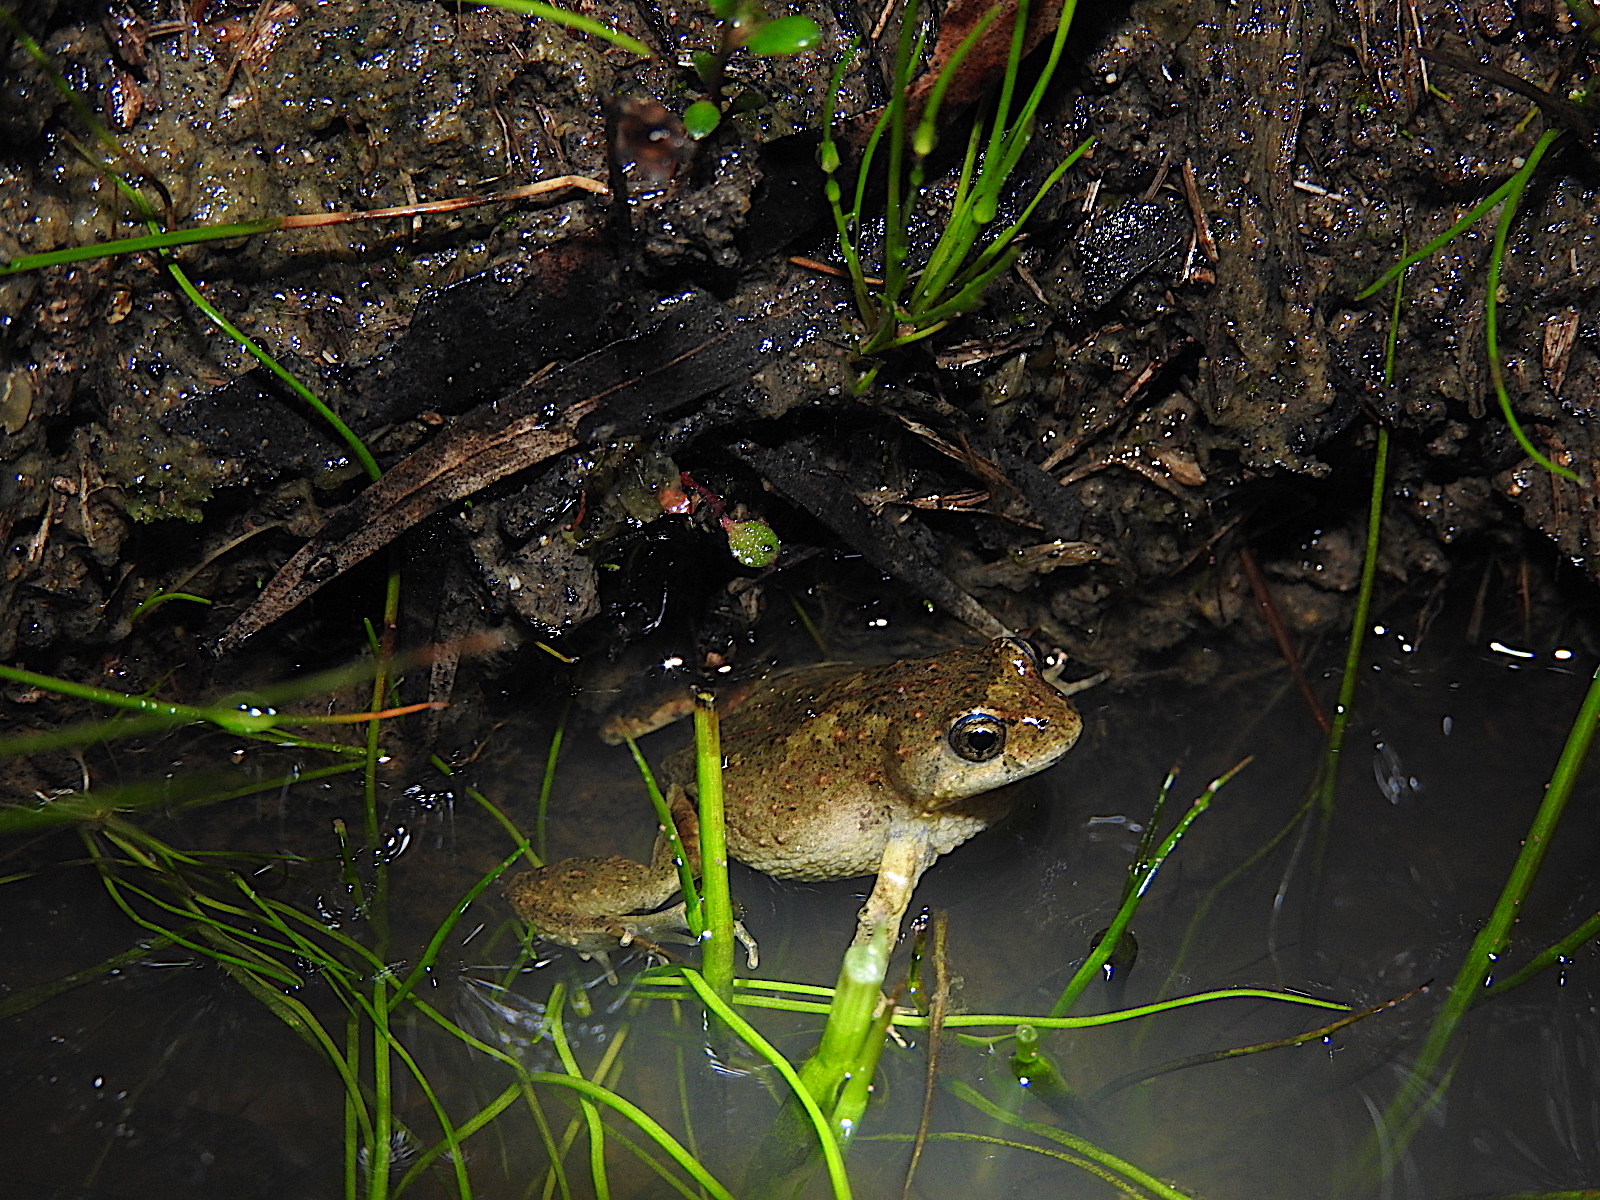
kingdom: Animalia
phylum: Chordata
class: Amphibia
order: Anura
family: Myobatrachidae
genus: Crinia
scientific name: Crinia signifera
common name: Brown froglet
